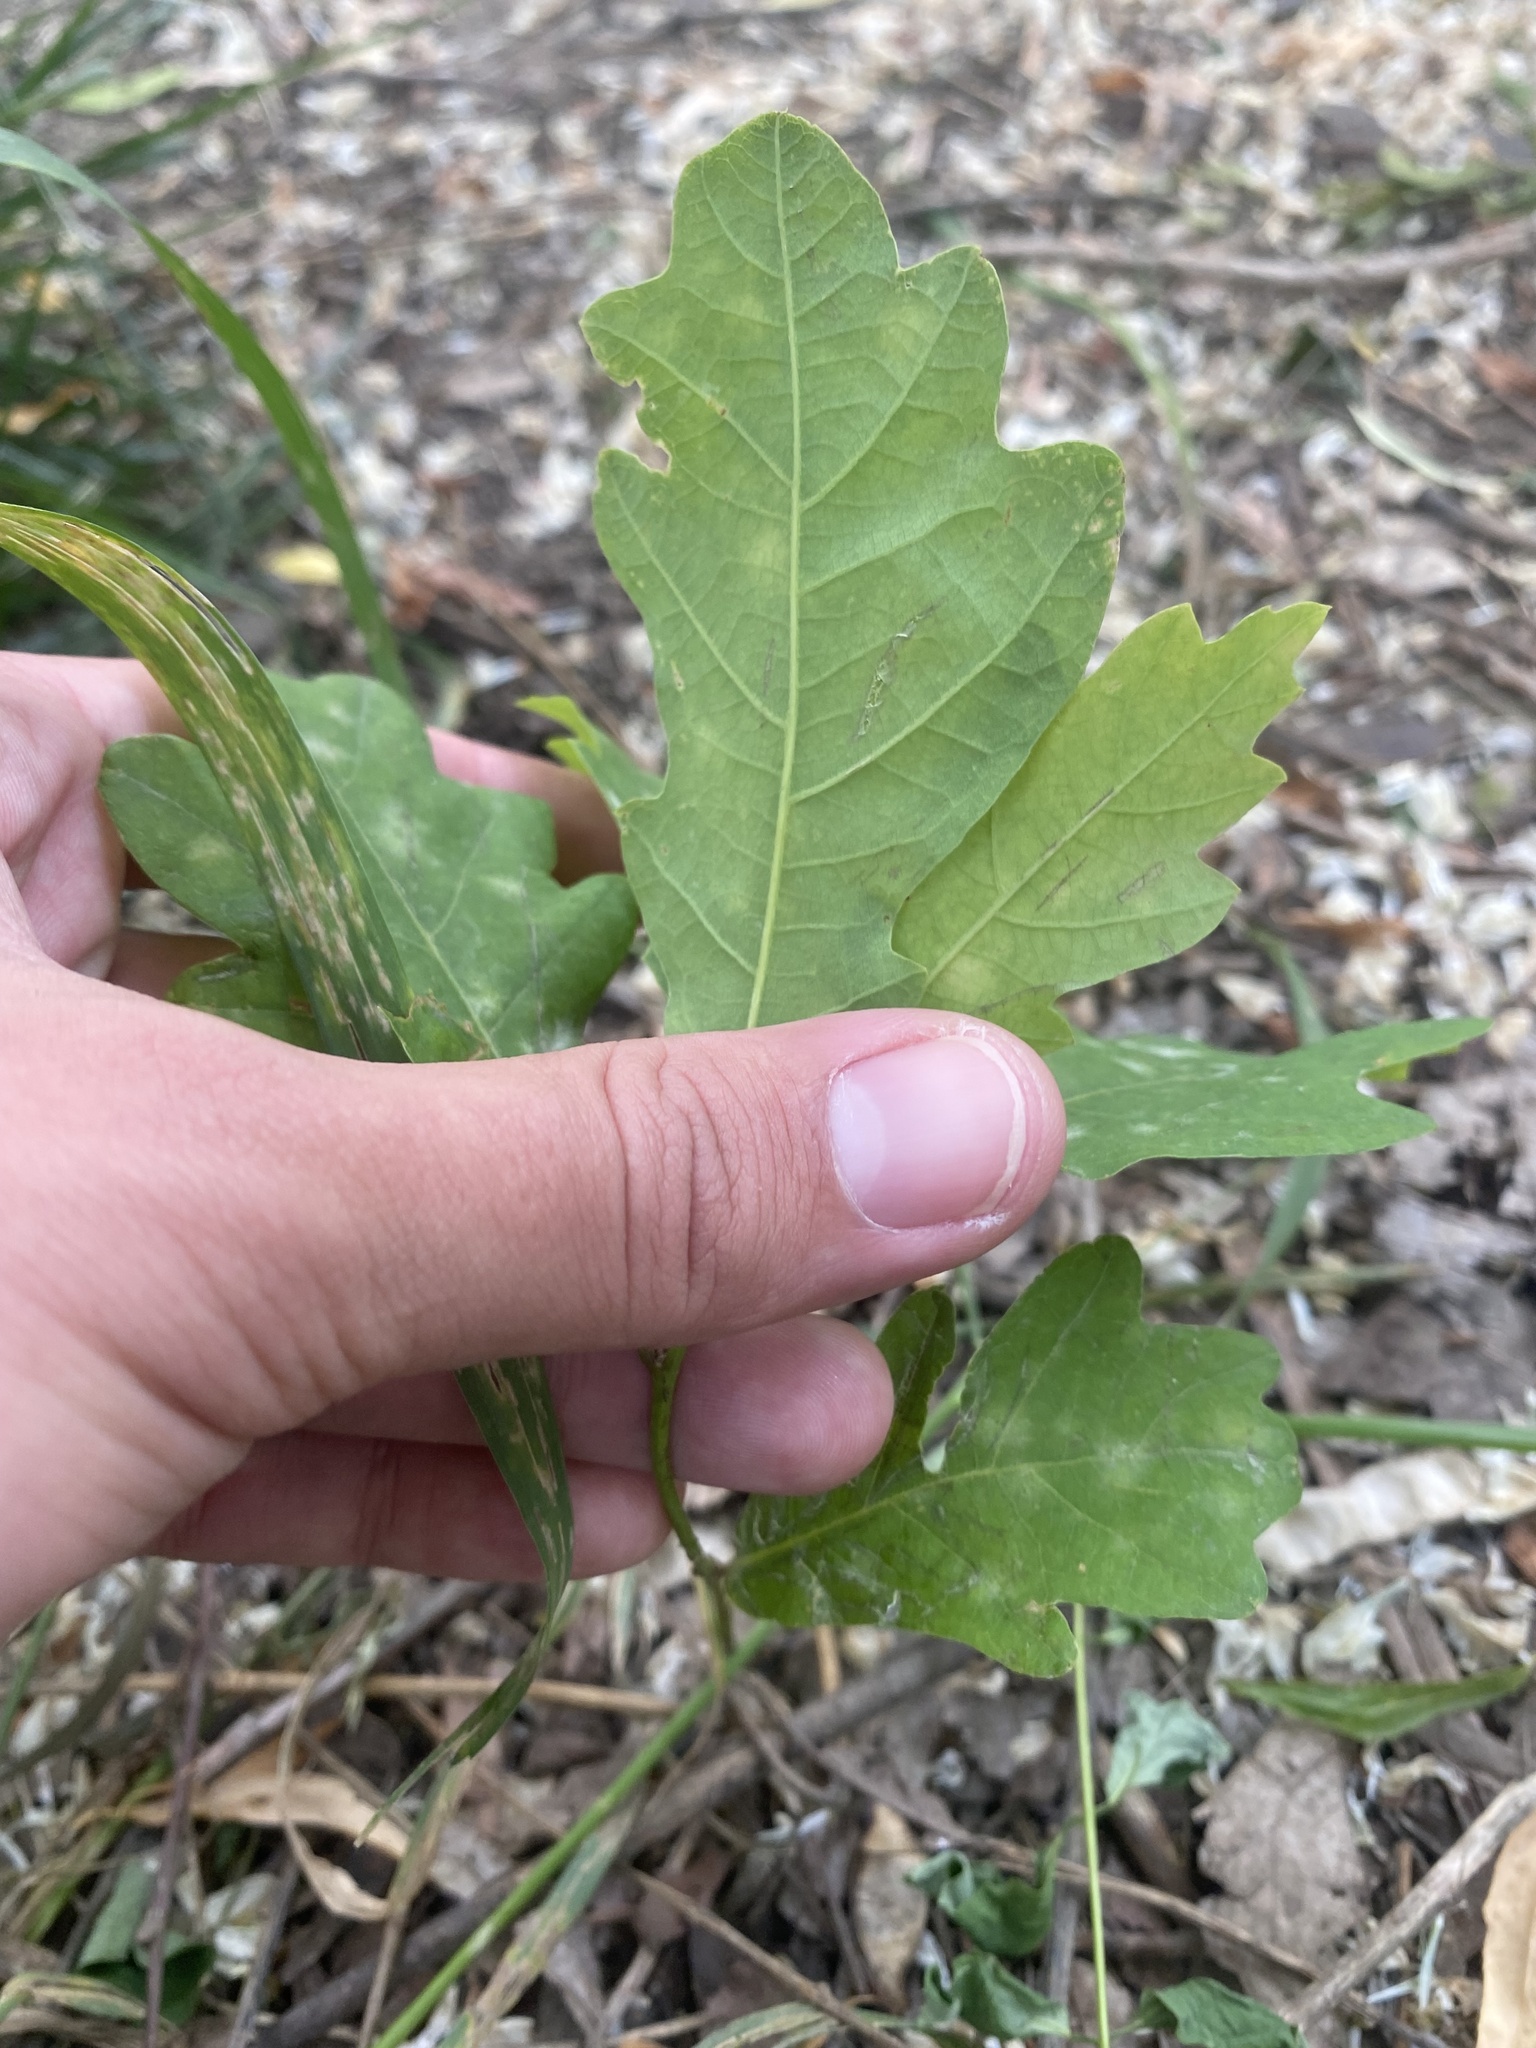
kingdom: Plantae
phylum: Tracheophyta
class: Magnoliopsida
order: Fagales
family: Fagaceae
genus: Quercus
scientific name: Quercus robur
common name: Pedunculate oak
